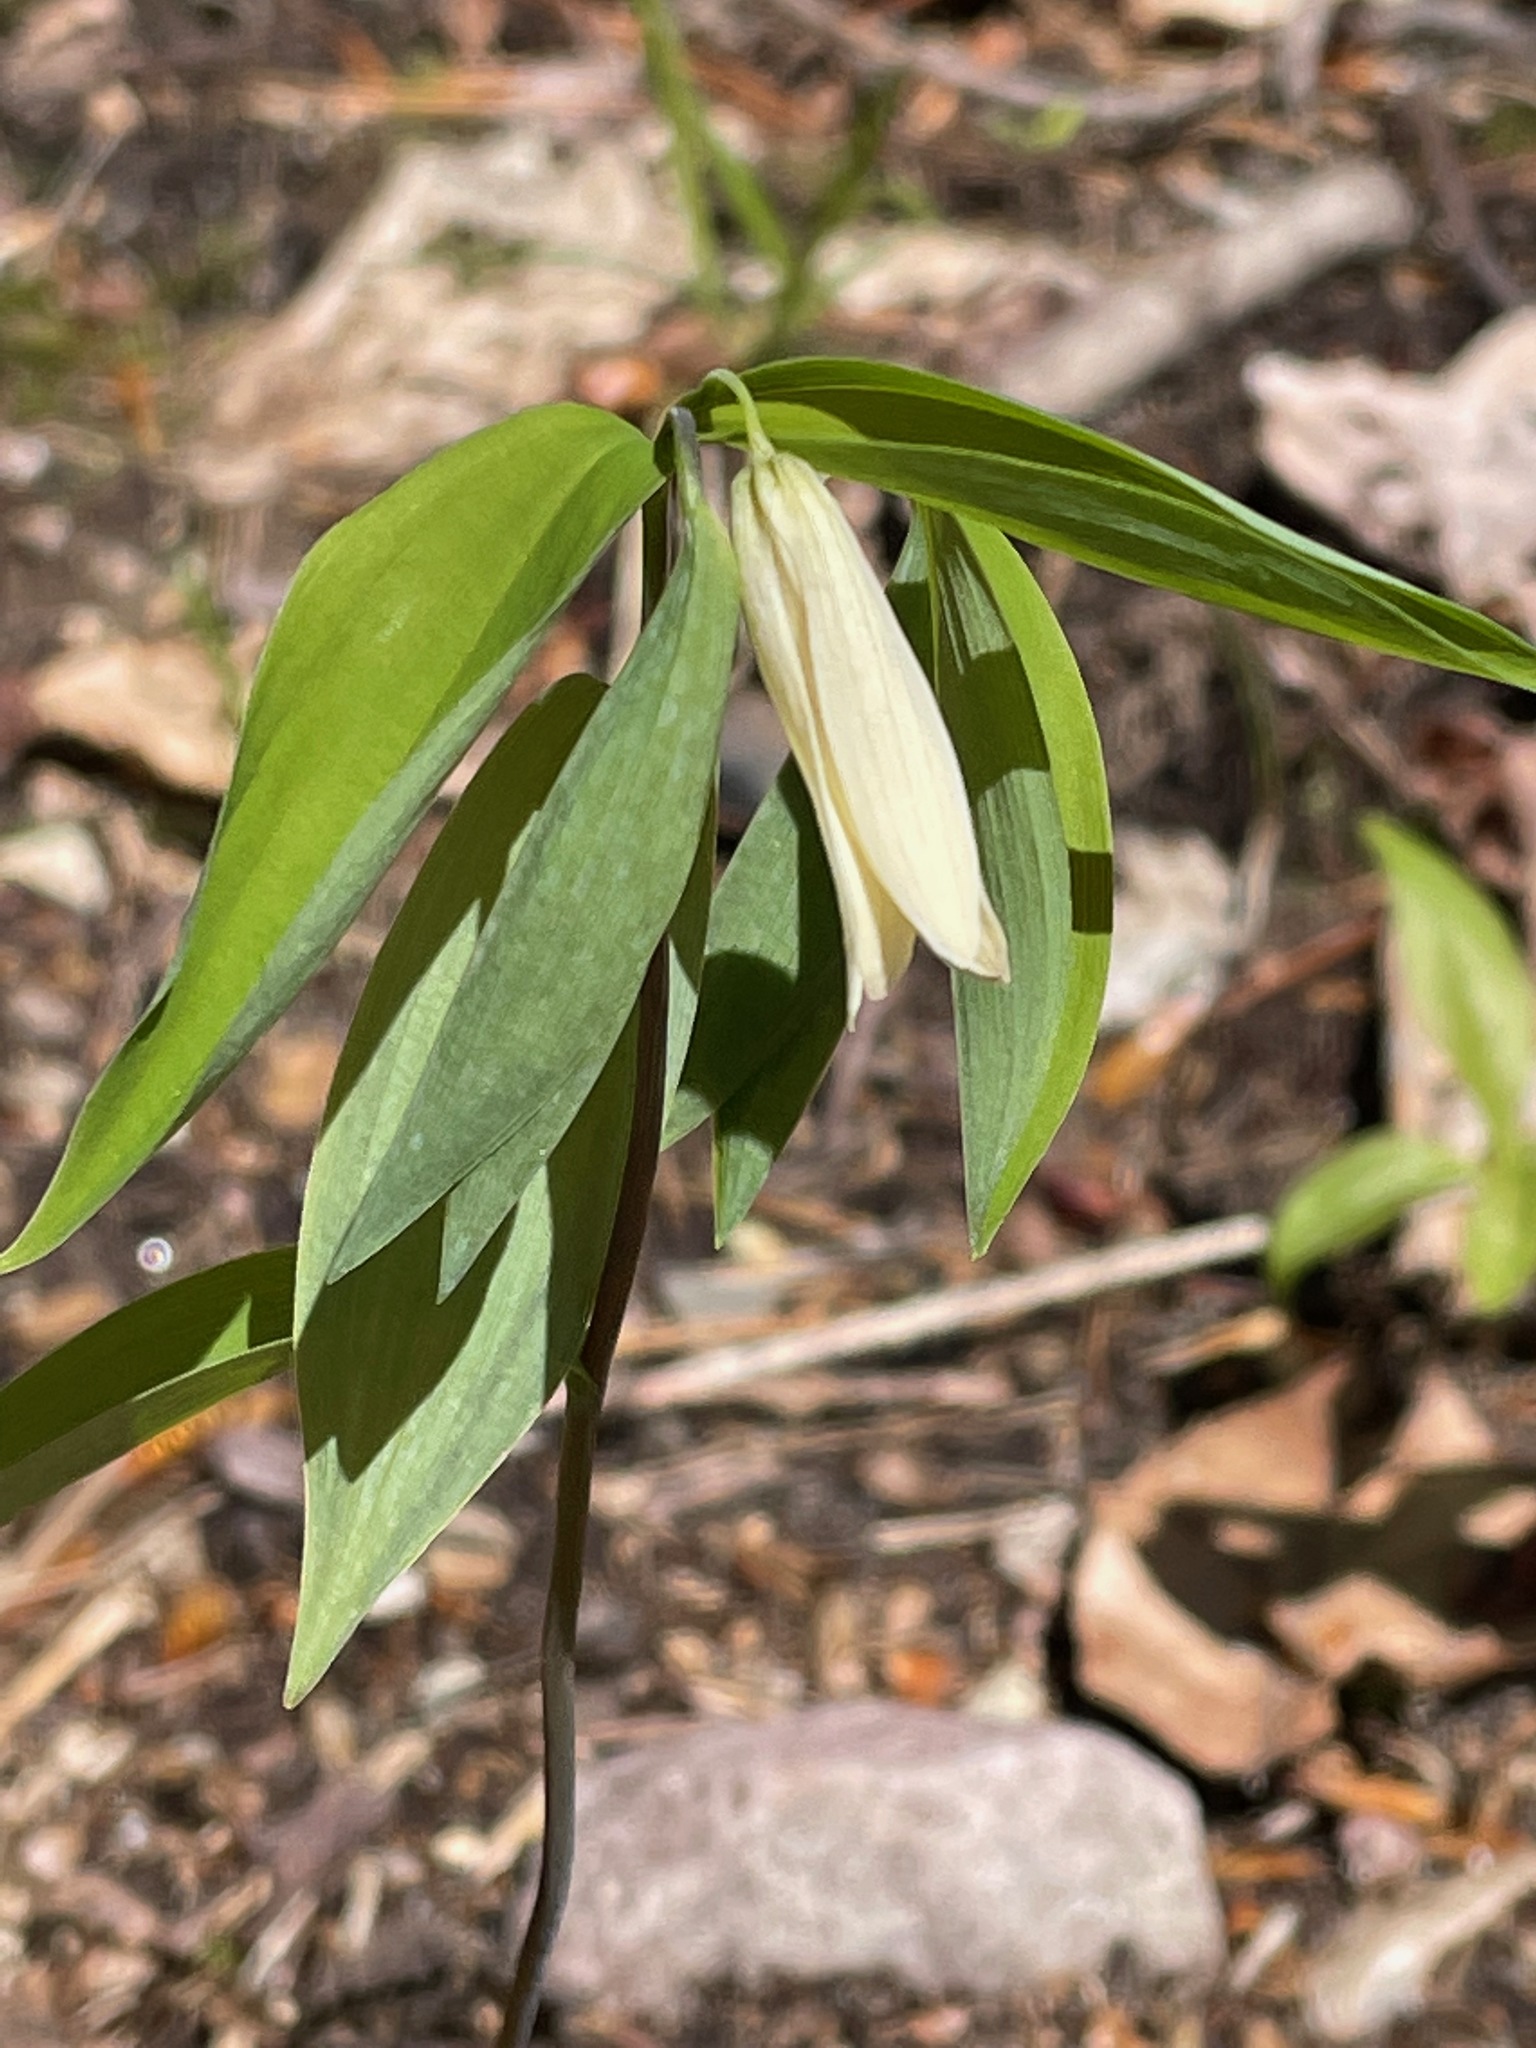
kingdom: Plantae
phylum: Tracheophyta
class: Liliopsida
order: Liliales
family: Colchicaceae
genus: Uvularia
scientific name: Uvularia sessilifolia
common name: Straw-lily
